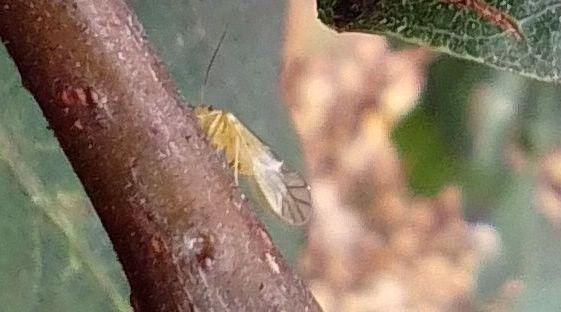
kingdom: Animalia
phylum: Arthropoda
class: Insecta
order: Psocodea
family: Caeciliusidae
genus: Valenzuela
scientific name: Valenzuela flavidus
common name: Yellow barklouse
